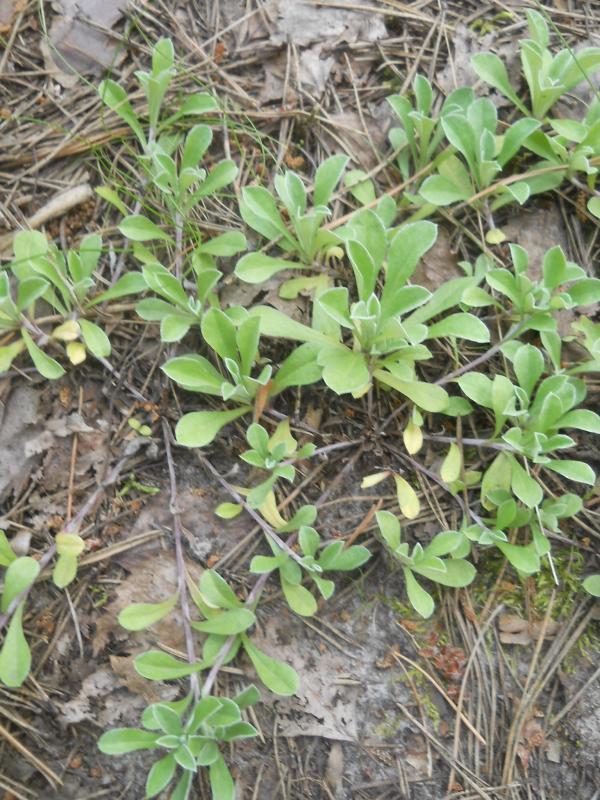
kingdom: Plantae
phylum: Tracheophyta
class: Magnoliopsida
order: Asterales
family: Asteraceae
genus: Antennaria
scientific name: Antennaria dioica
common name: Mountain everlasting
